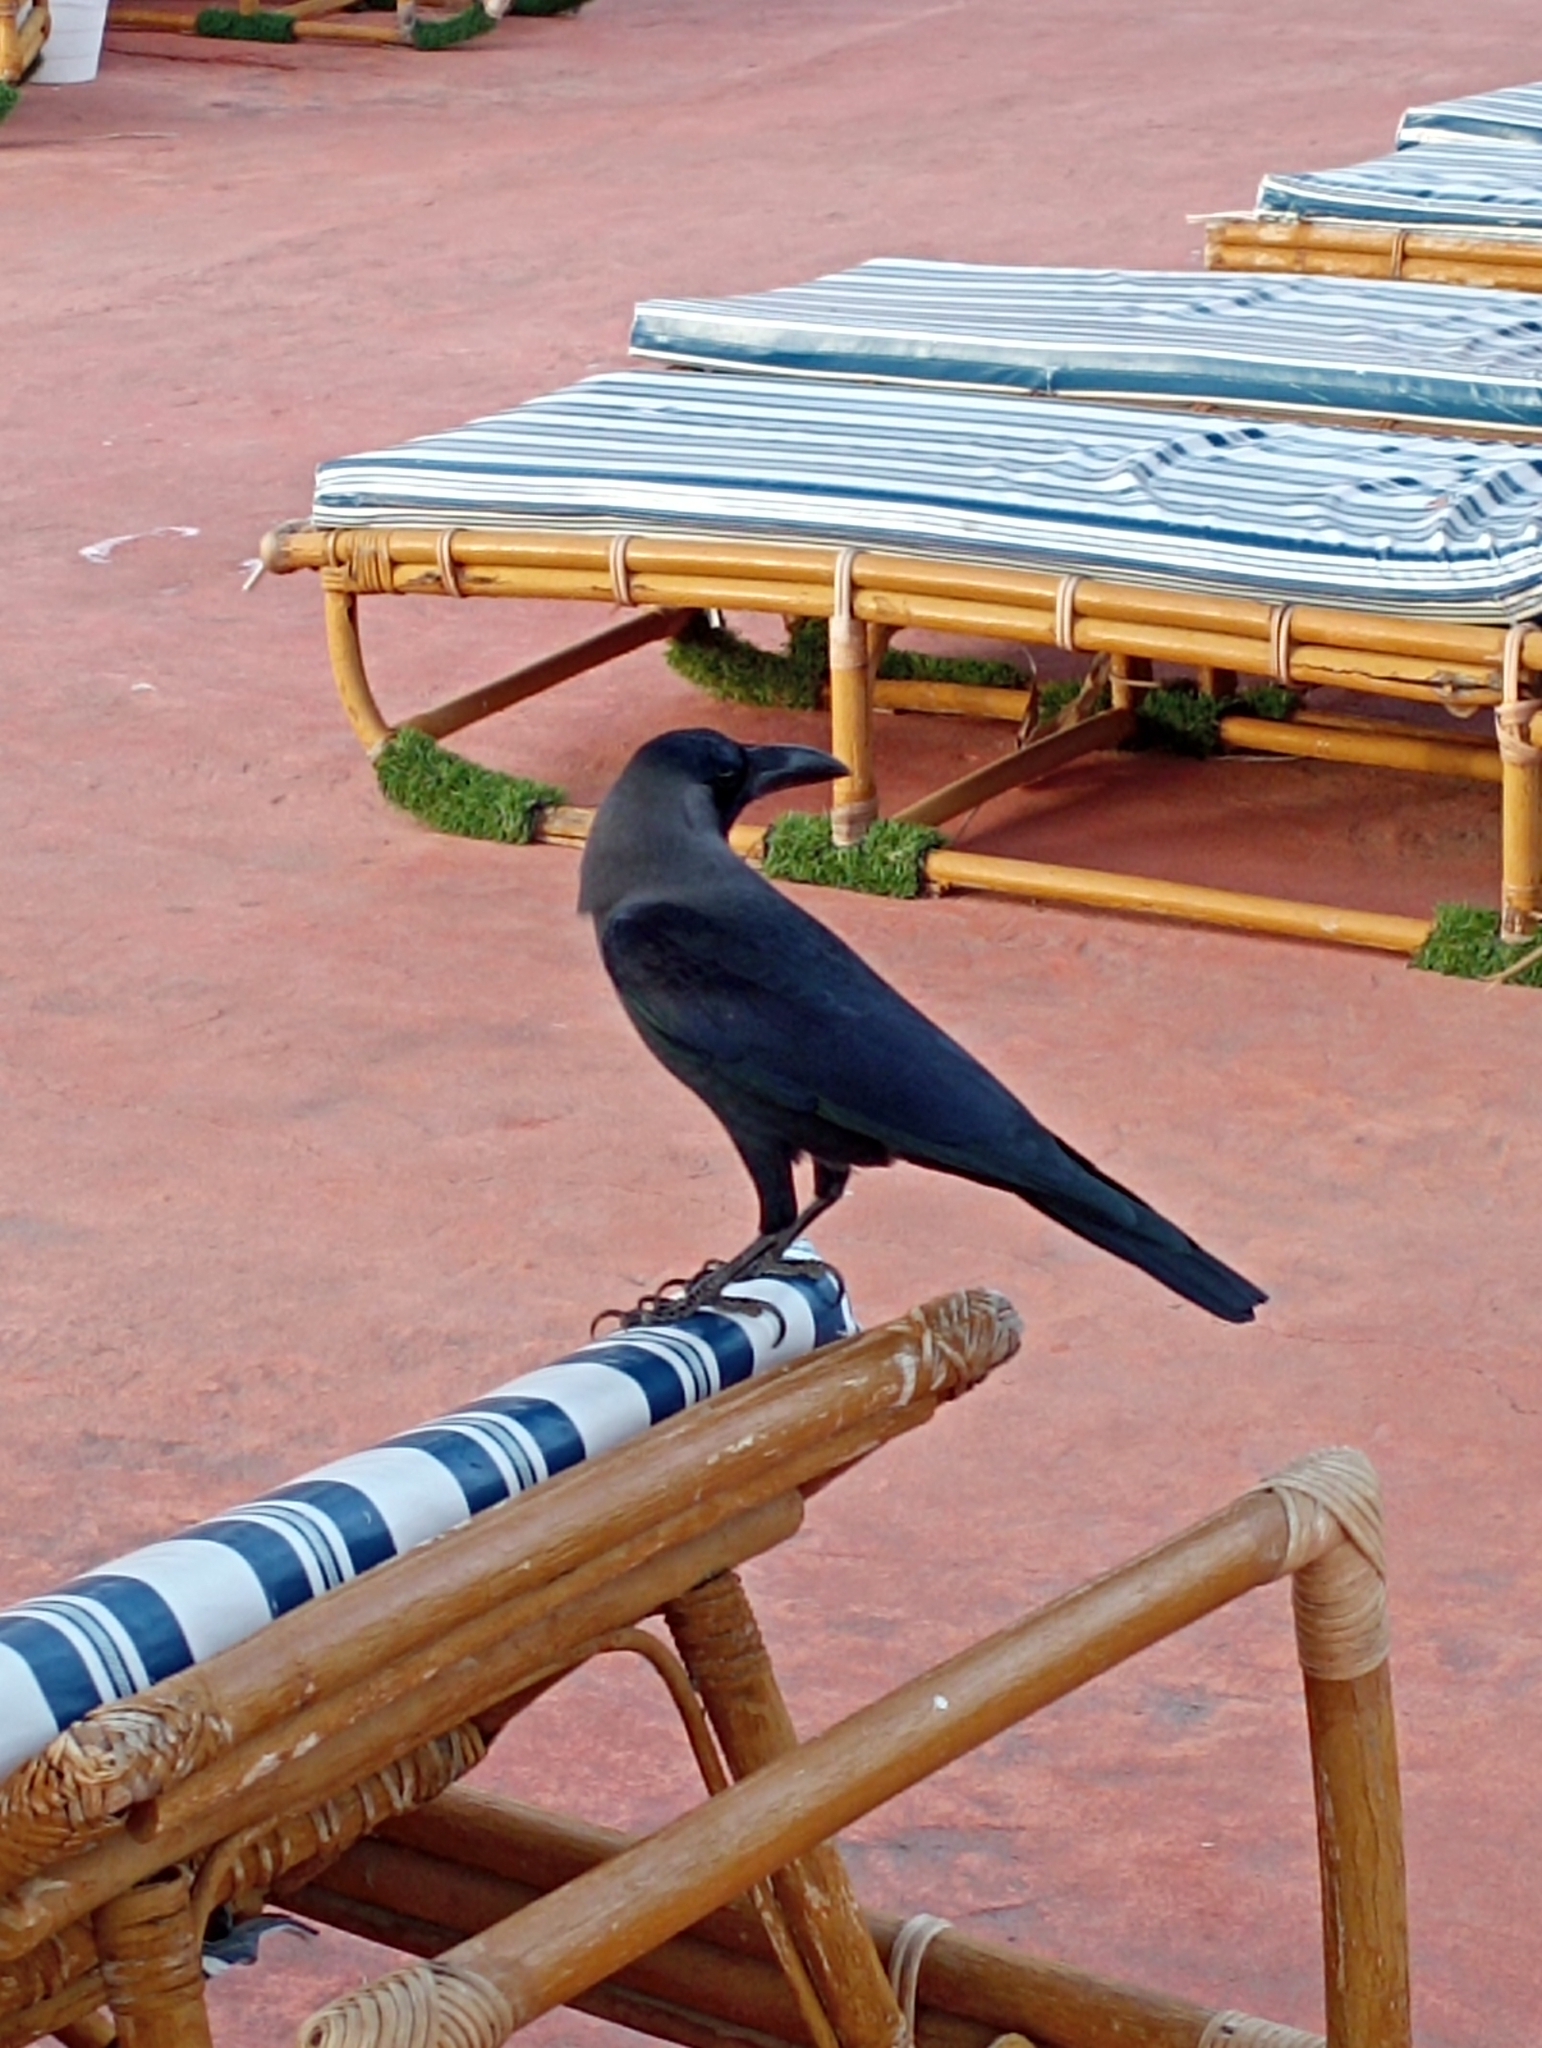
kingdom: Animalia
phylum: Chordata
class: Aves
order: Passeriformes
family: Corvidae
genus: Corvus
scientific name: Corvus splendens
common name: House crow
